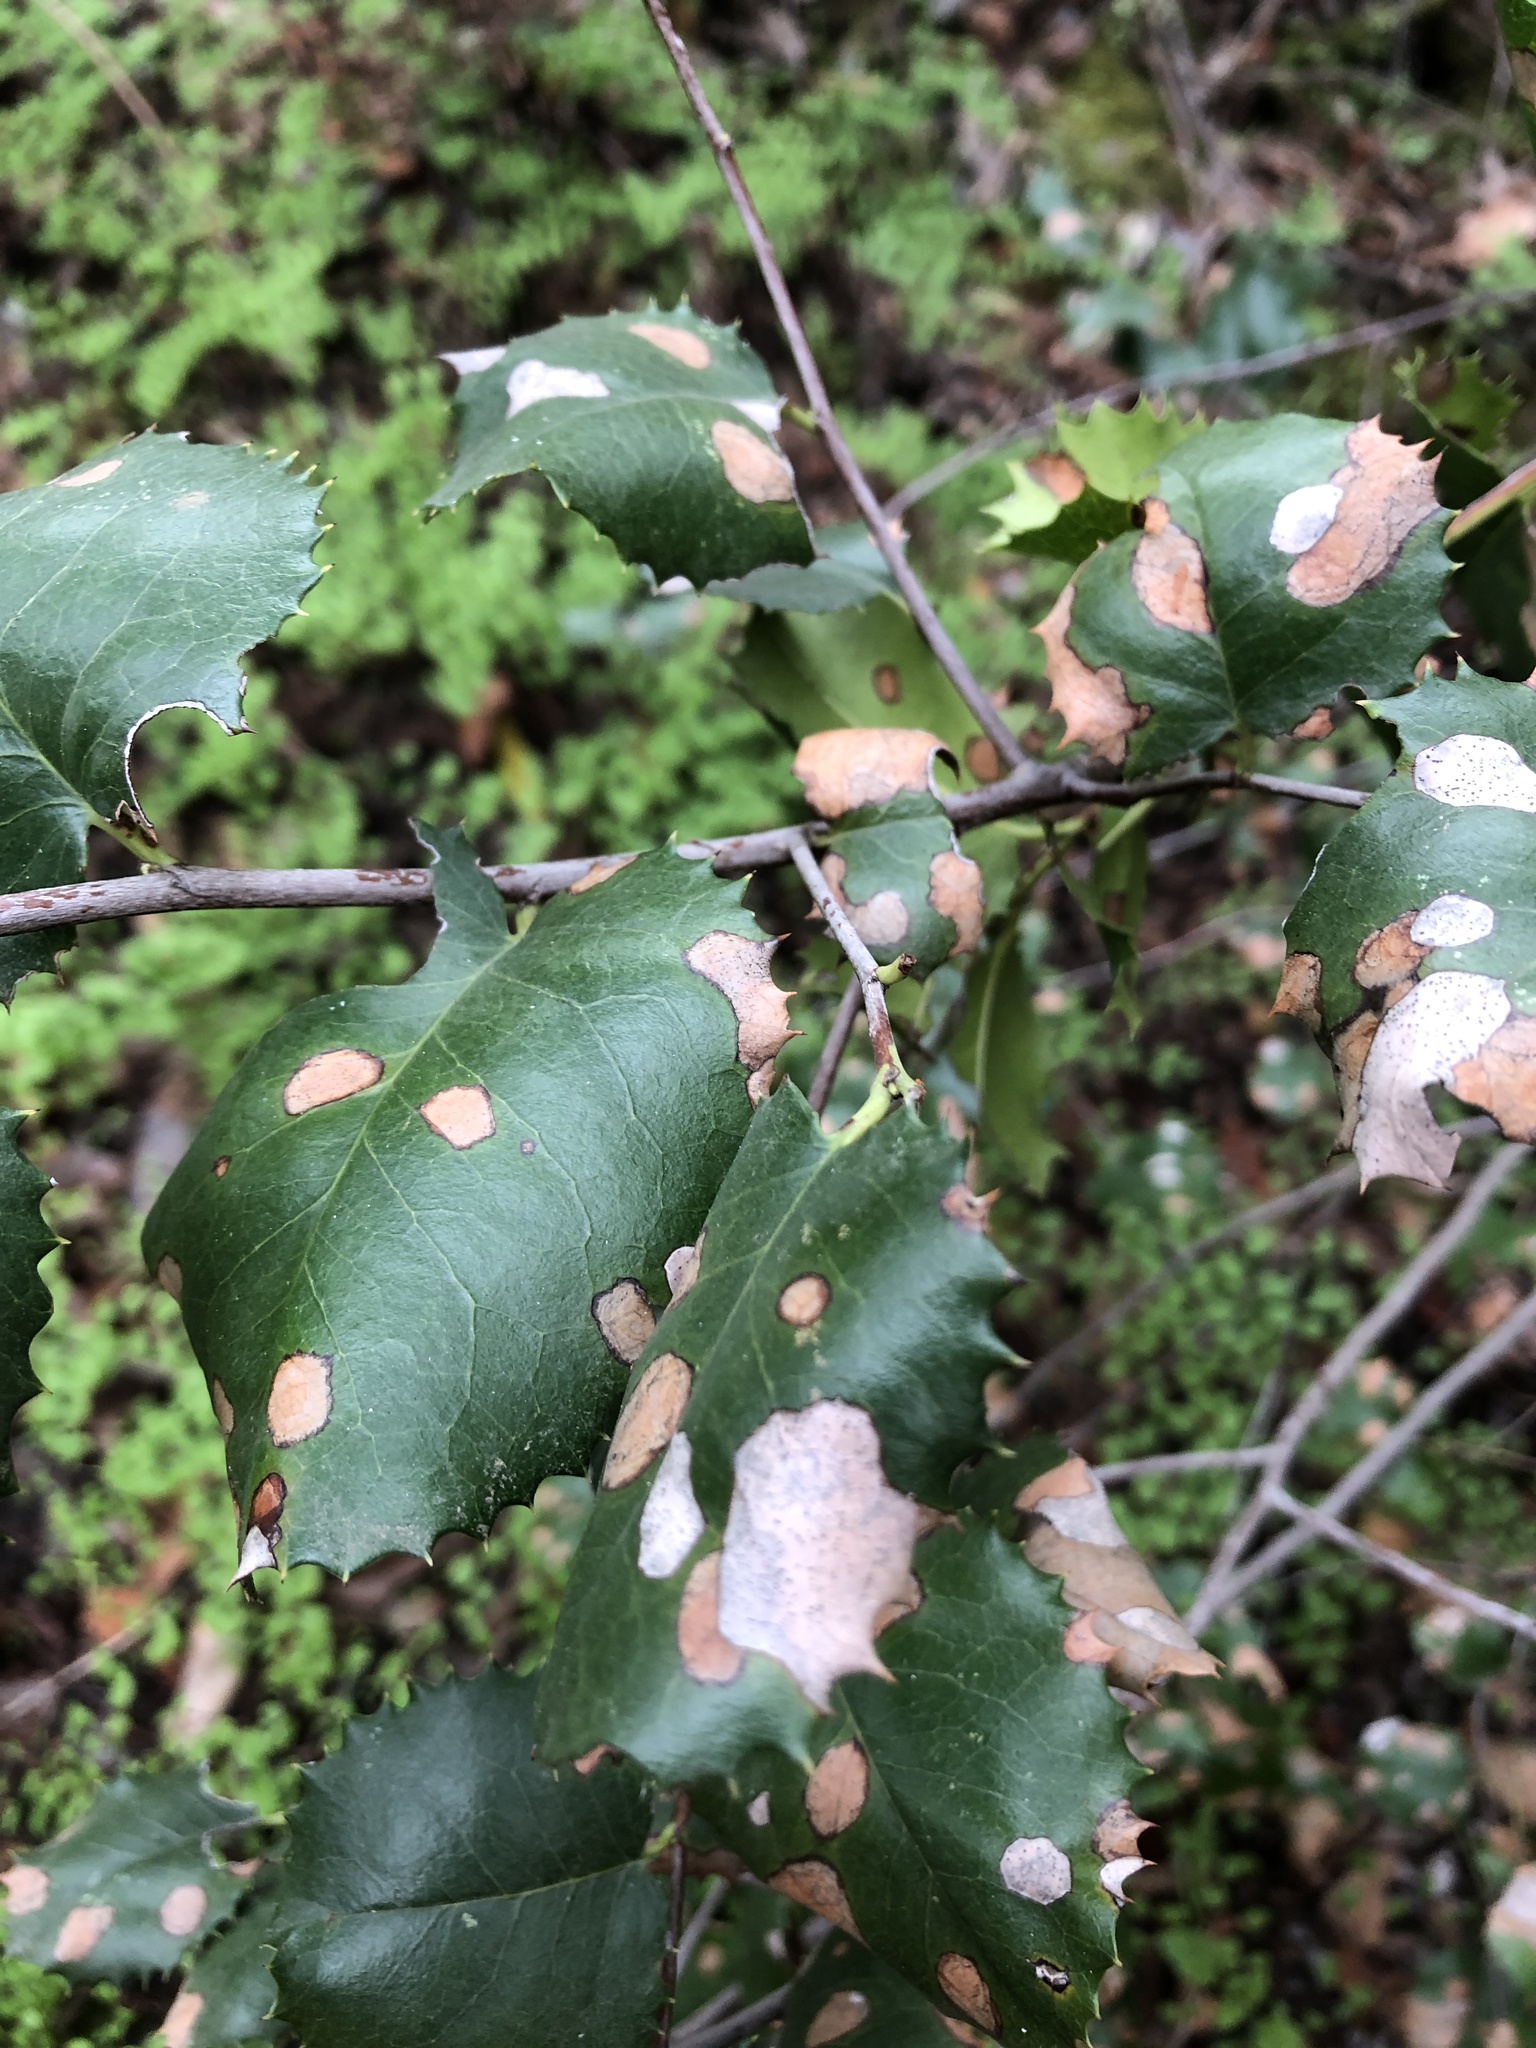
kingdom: Plantae
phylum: Tracheophyta
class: Magnoliopsida
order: Rosales
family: Rosaceae
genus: Prunus
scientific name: Prunus ilicifolia
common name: Hollyleaf cherry
